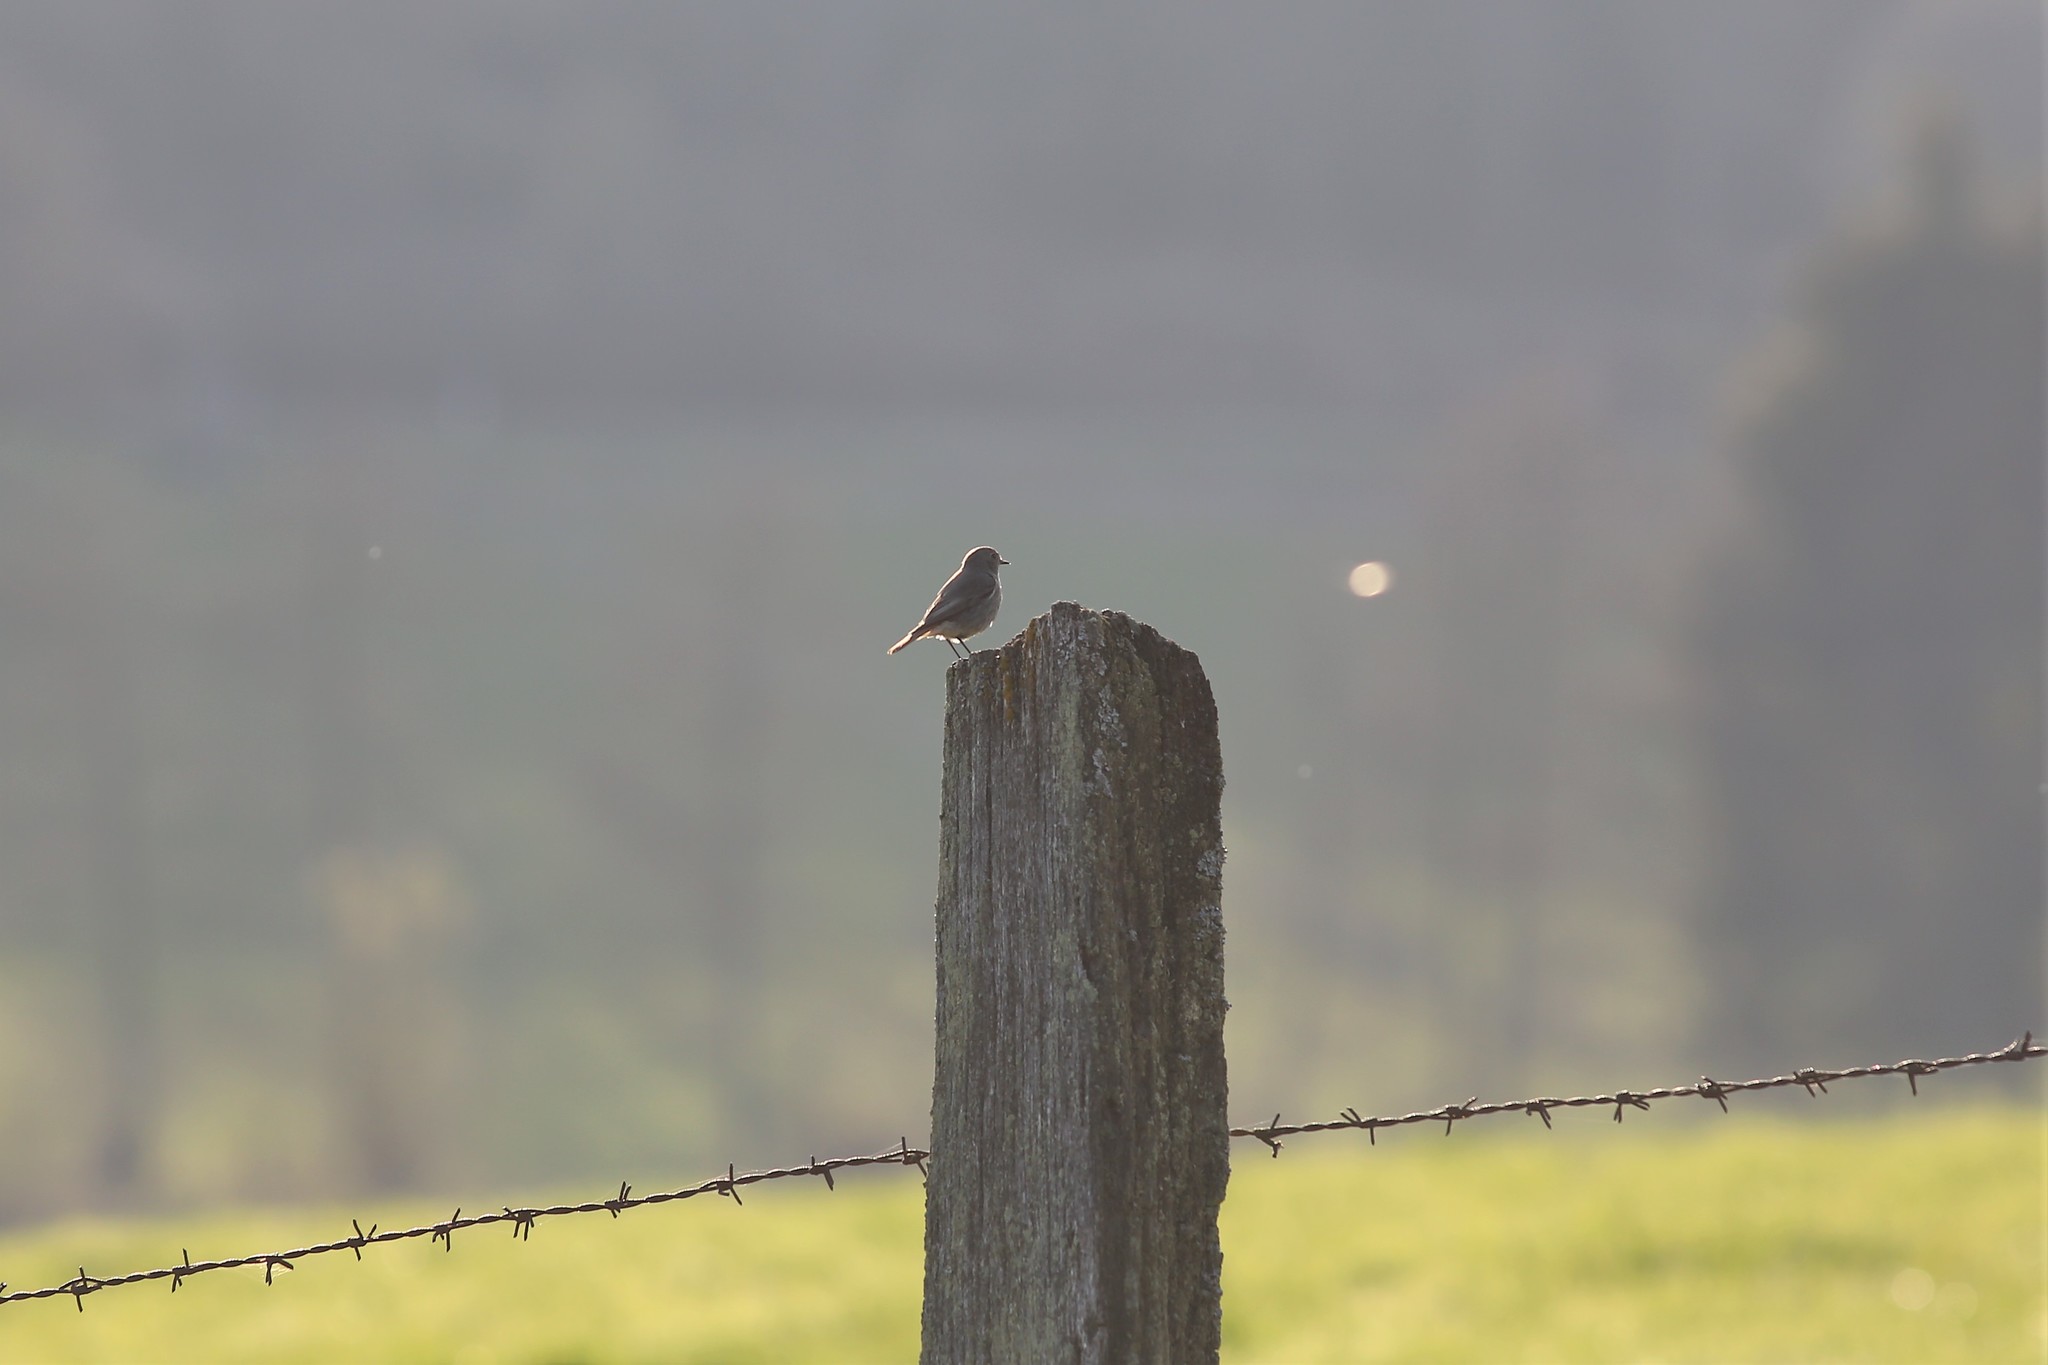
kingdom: Animalia
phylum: Chordata
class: Aves
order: Passeriformes
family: Muscicapidae
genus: Phoenicurus
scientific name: Phoenicurus ochruros
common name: Black redstart
